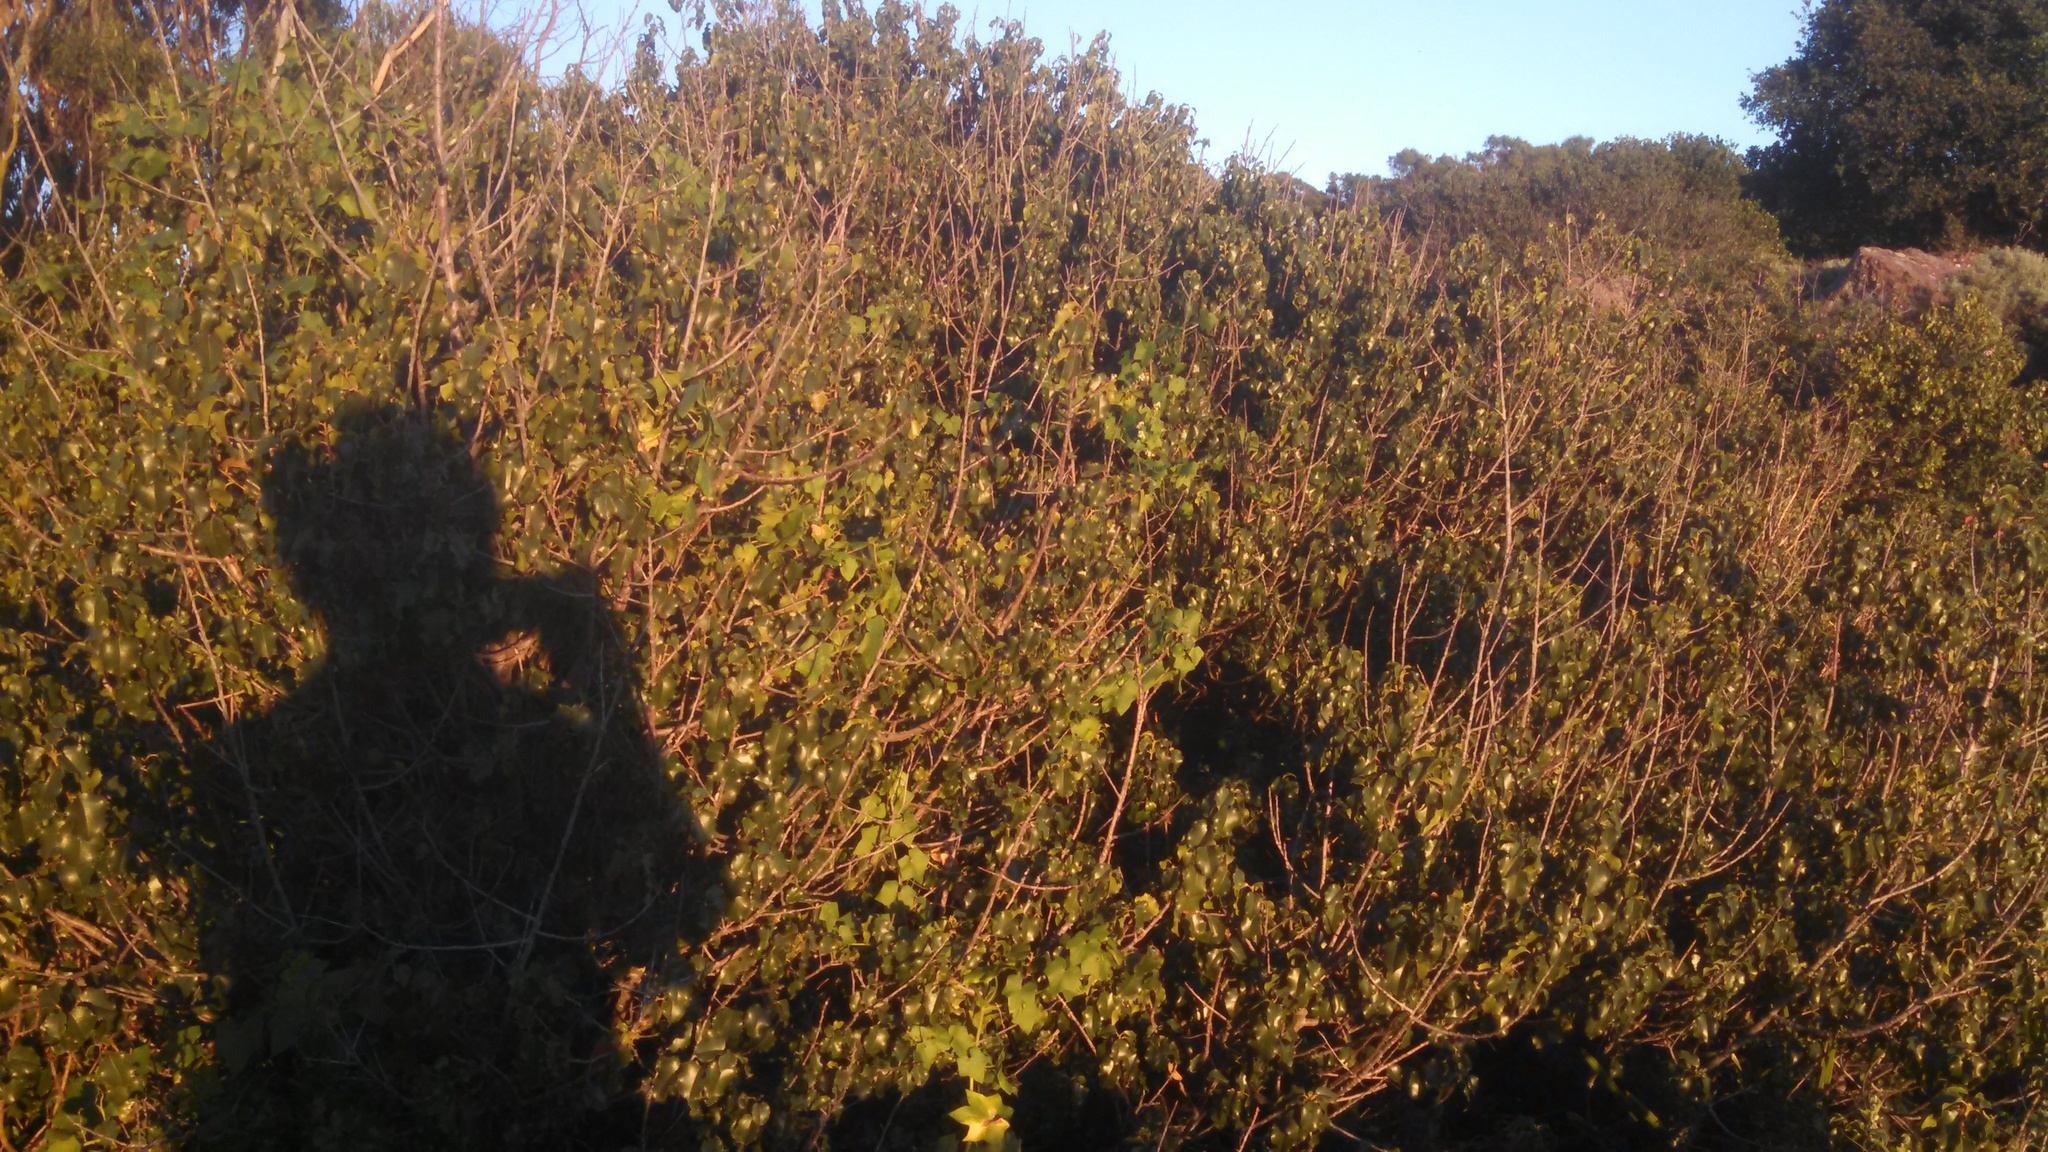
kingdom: Plantae
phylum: Tracheophyta
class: Magnoliopsida
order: Rosales
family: Rosaceae
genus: Prunus
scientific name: Prunus ilicifolia
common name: Hollyleaf cherry
